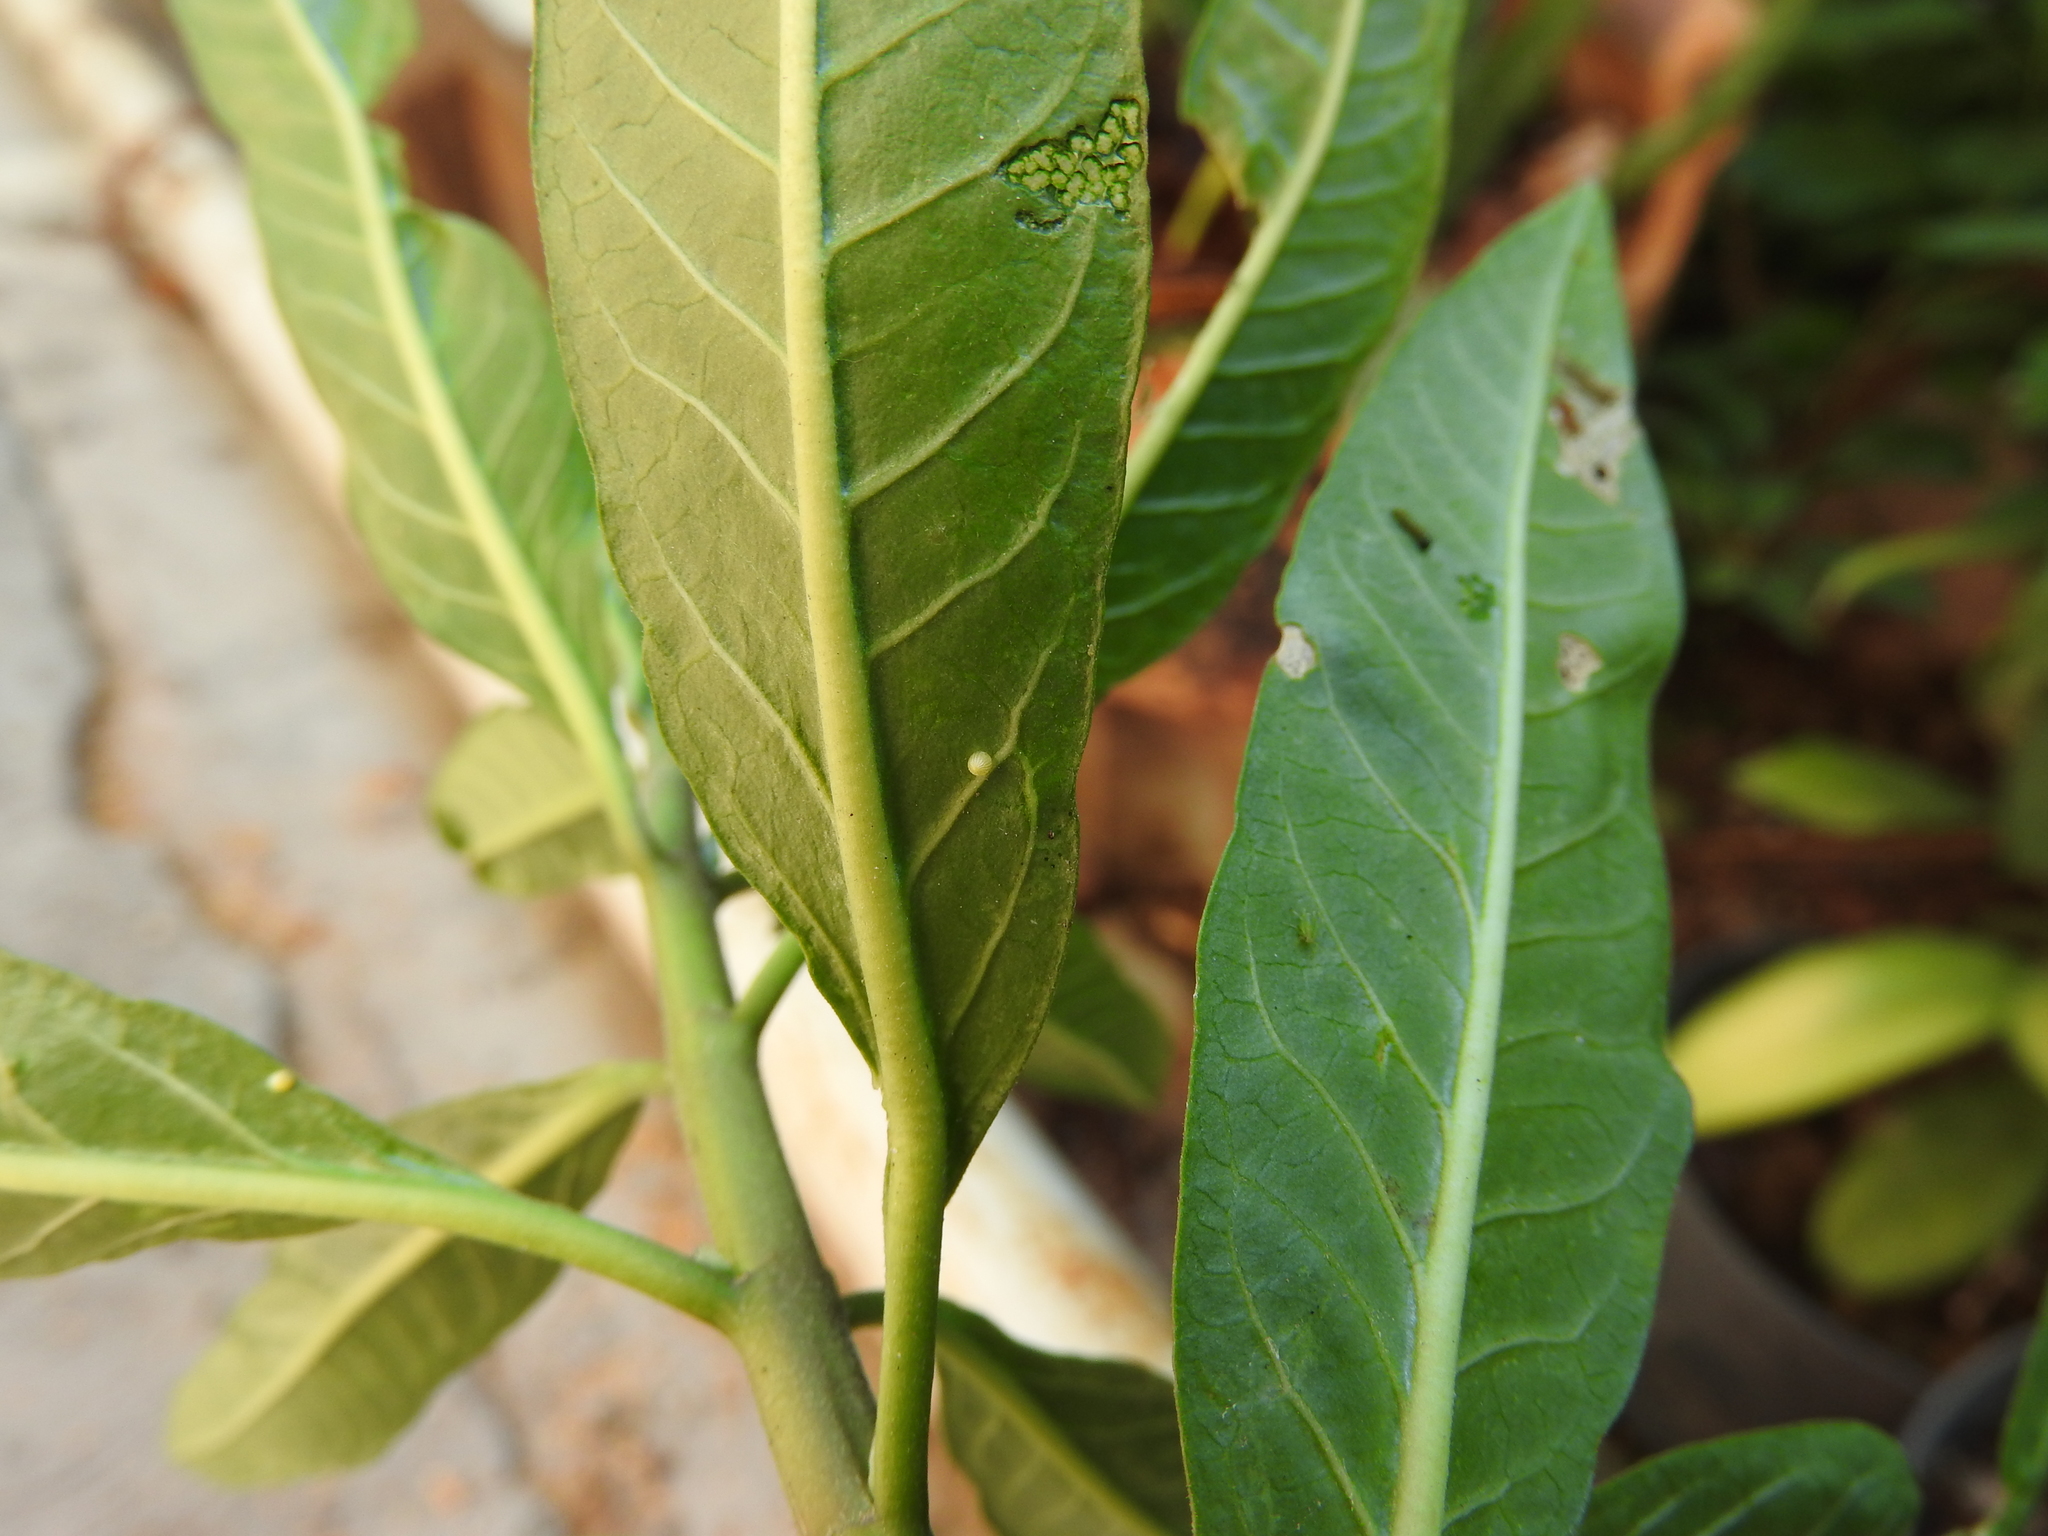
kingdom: Animalia
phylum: Arthropoda
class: Insecta
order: Lepidoptera
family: Nymphalidae
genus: Danaus
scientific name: Danaus plexippus
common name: Monarch
